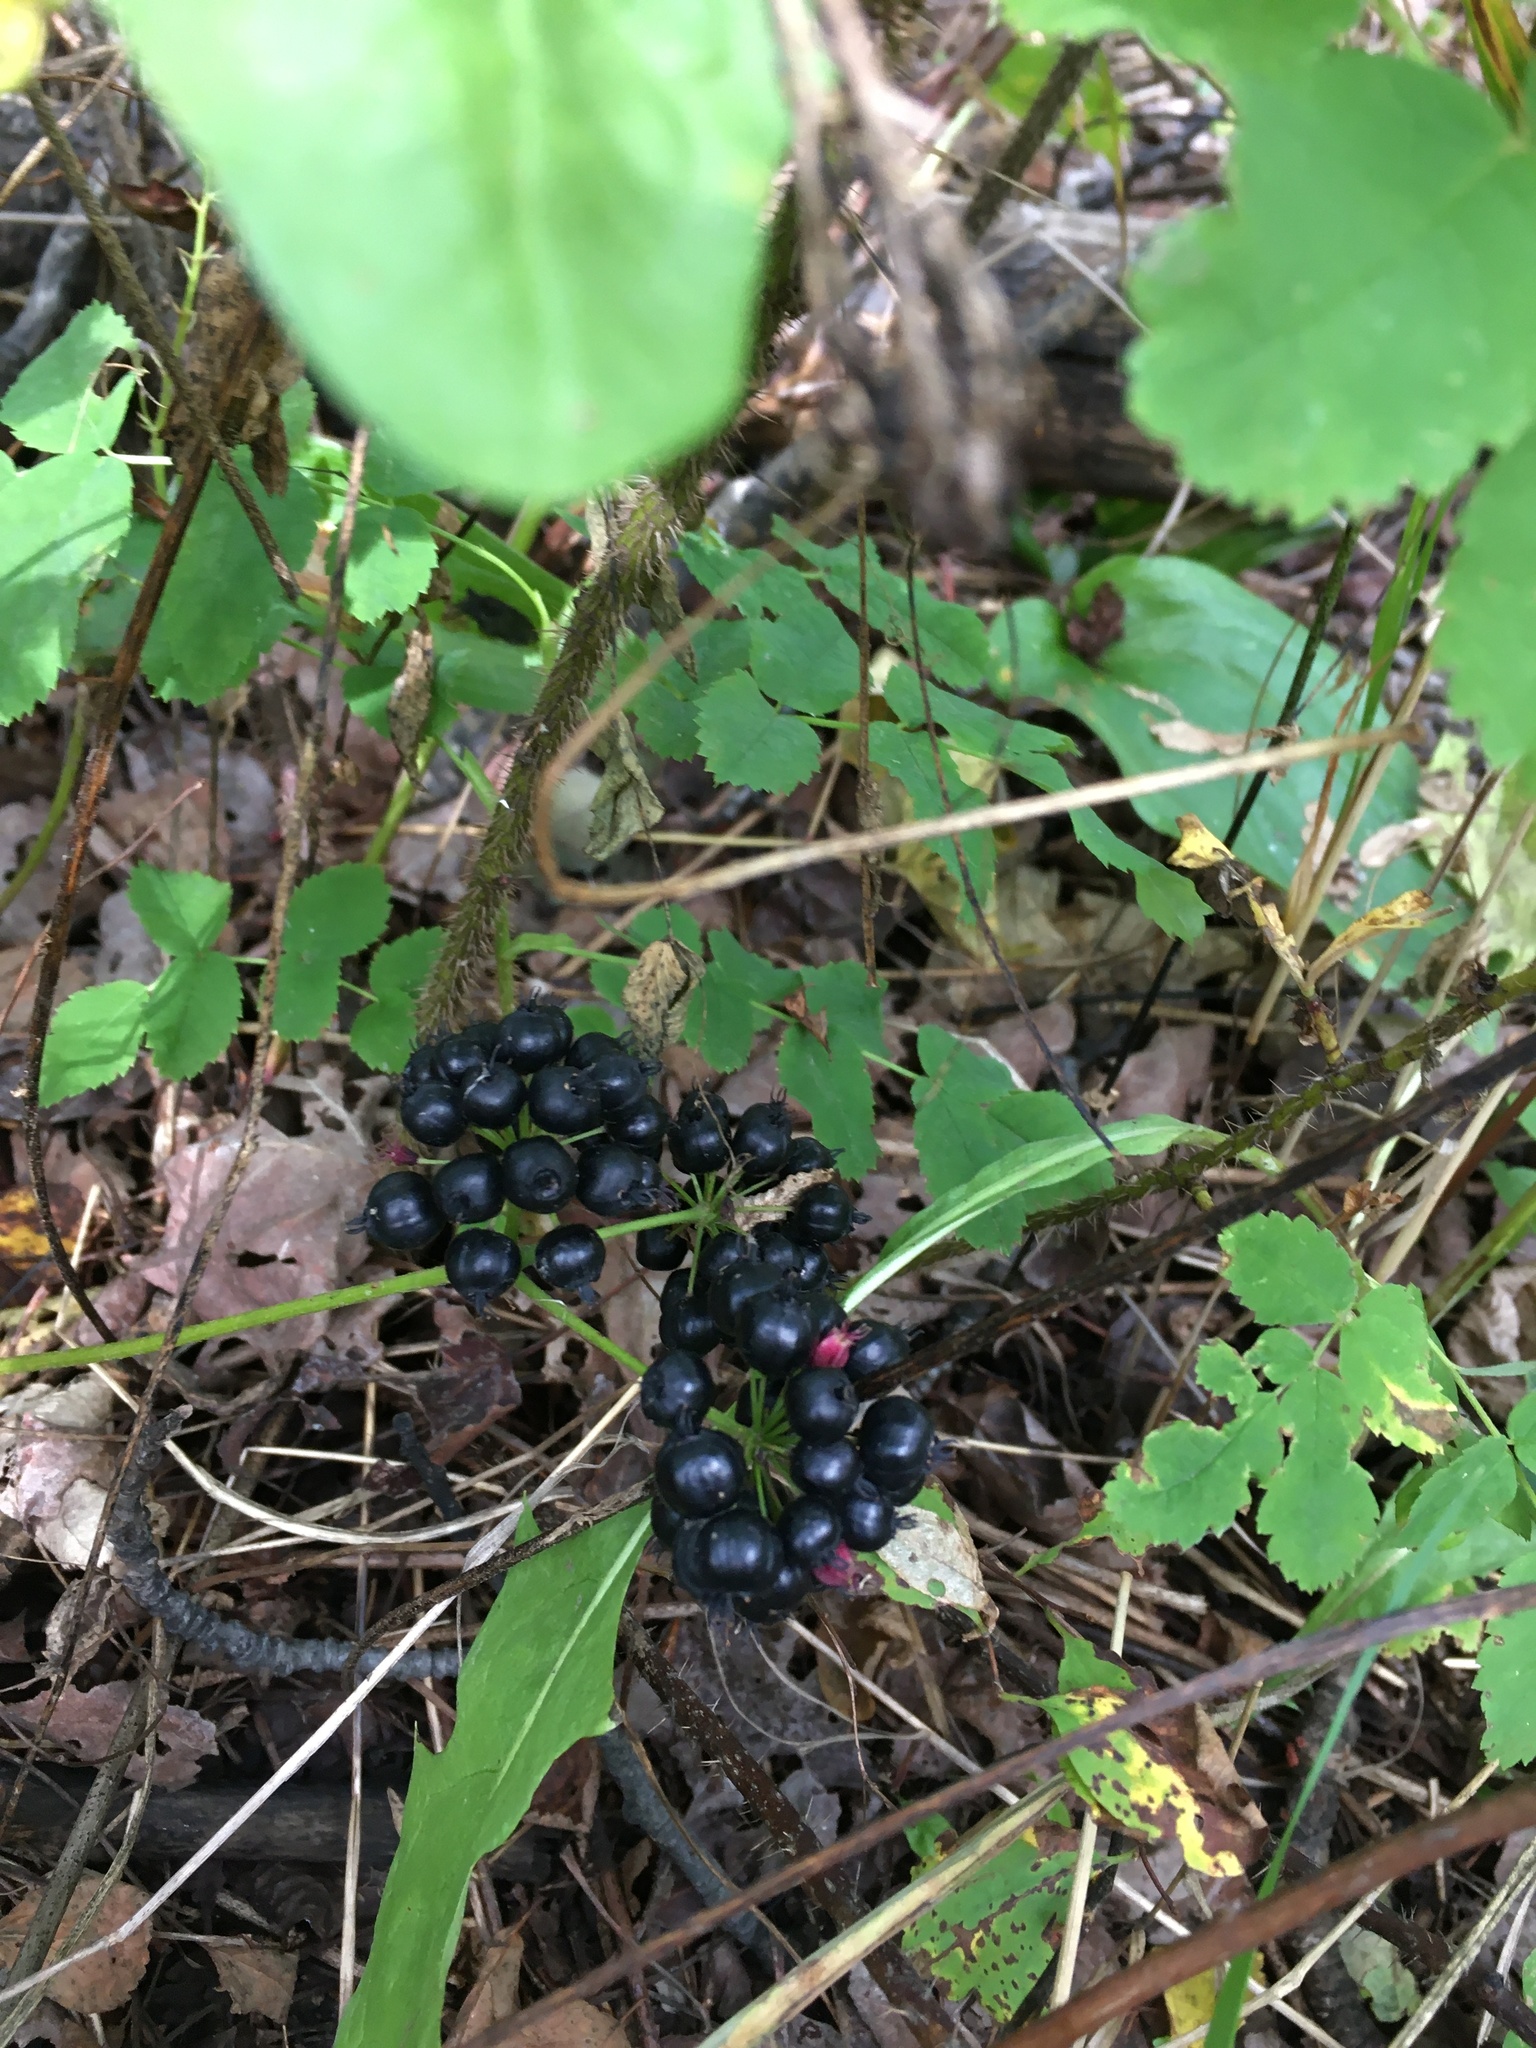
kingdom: Plantae
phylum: Tracheophyta
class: Magnoliopsida
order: Apiales
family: Araliaceae
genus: Aralia
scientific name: Aralia nudicaulis
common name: Wild sarsaparilla
